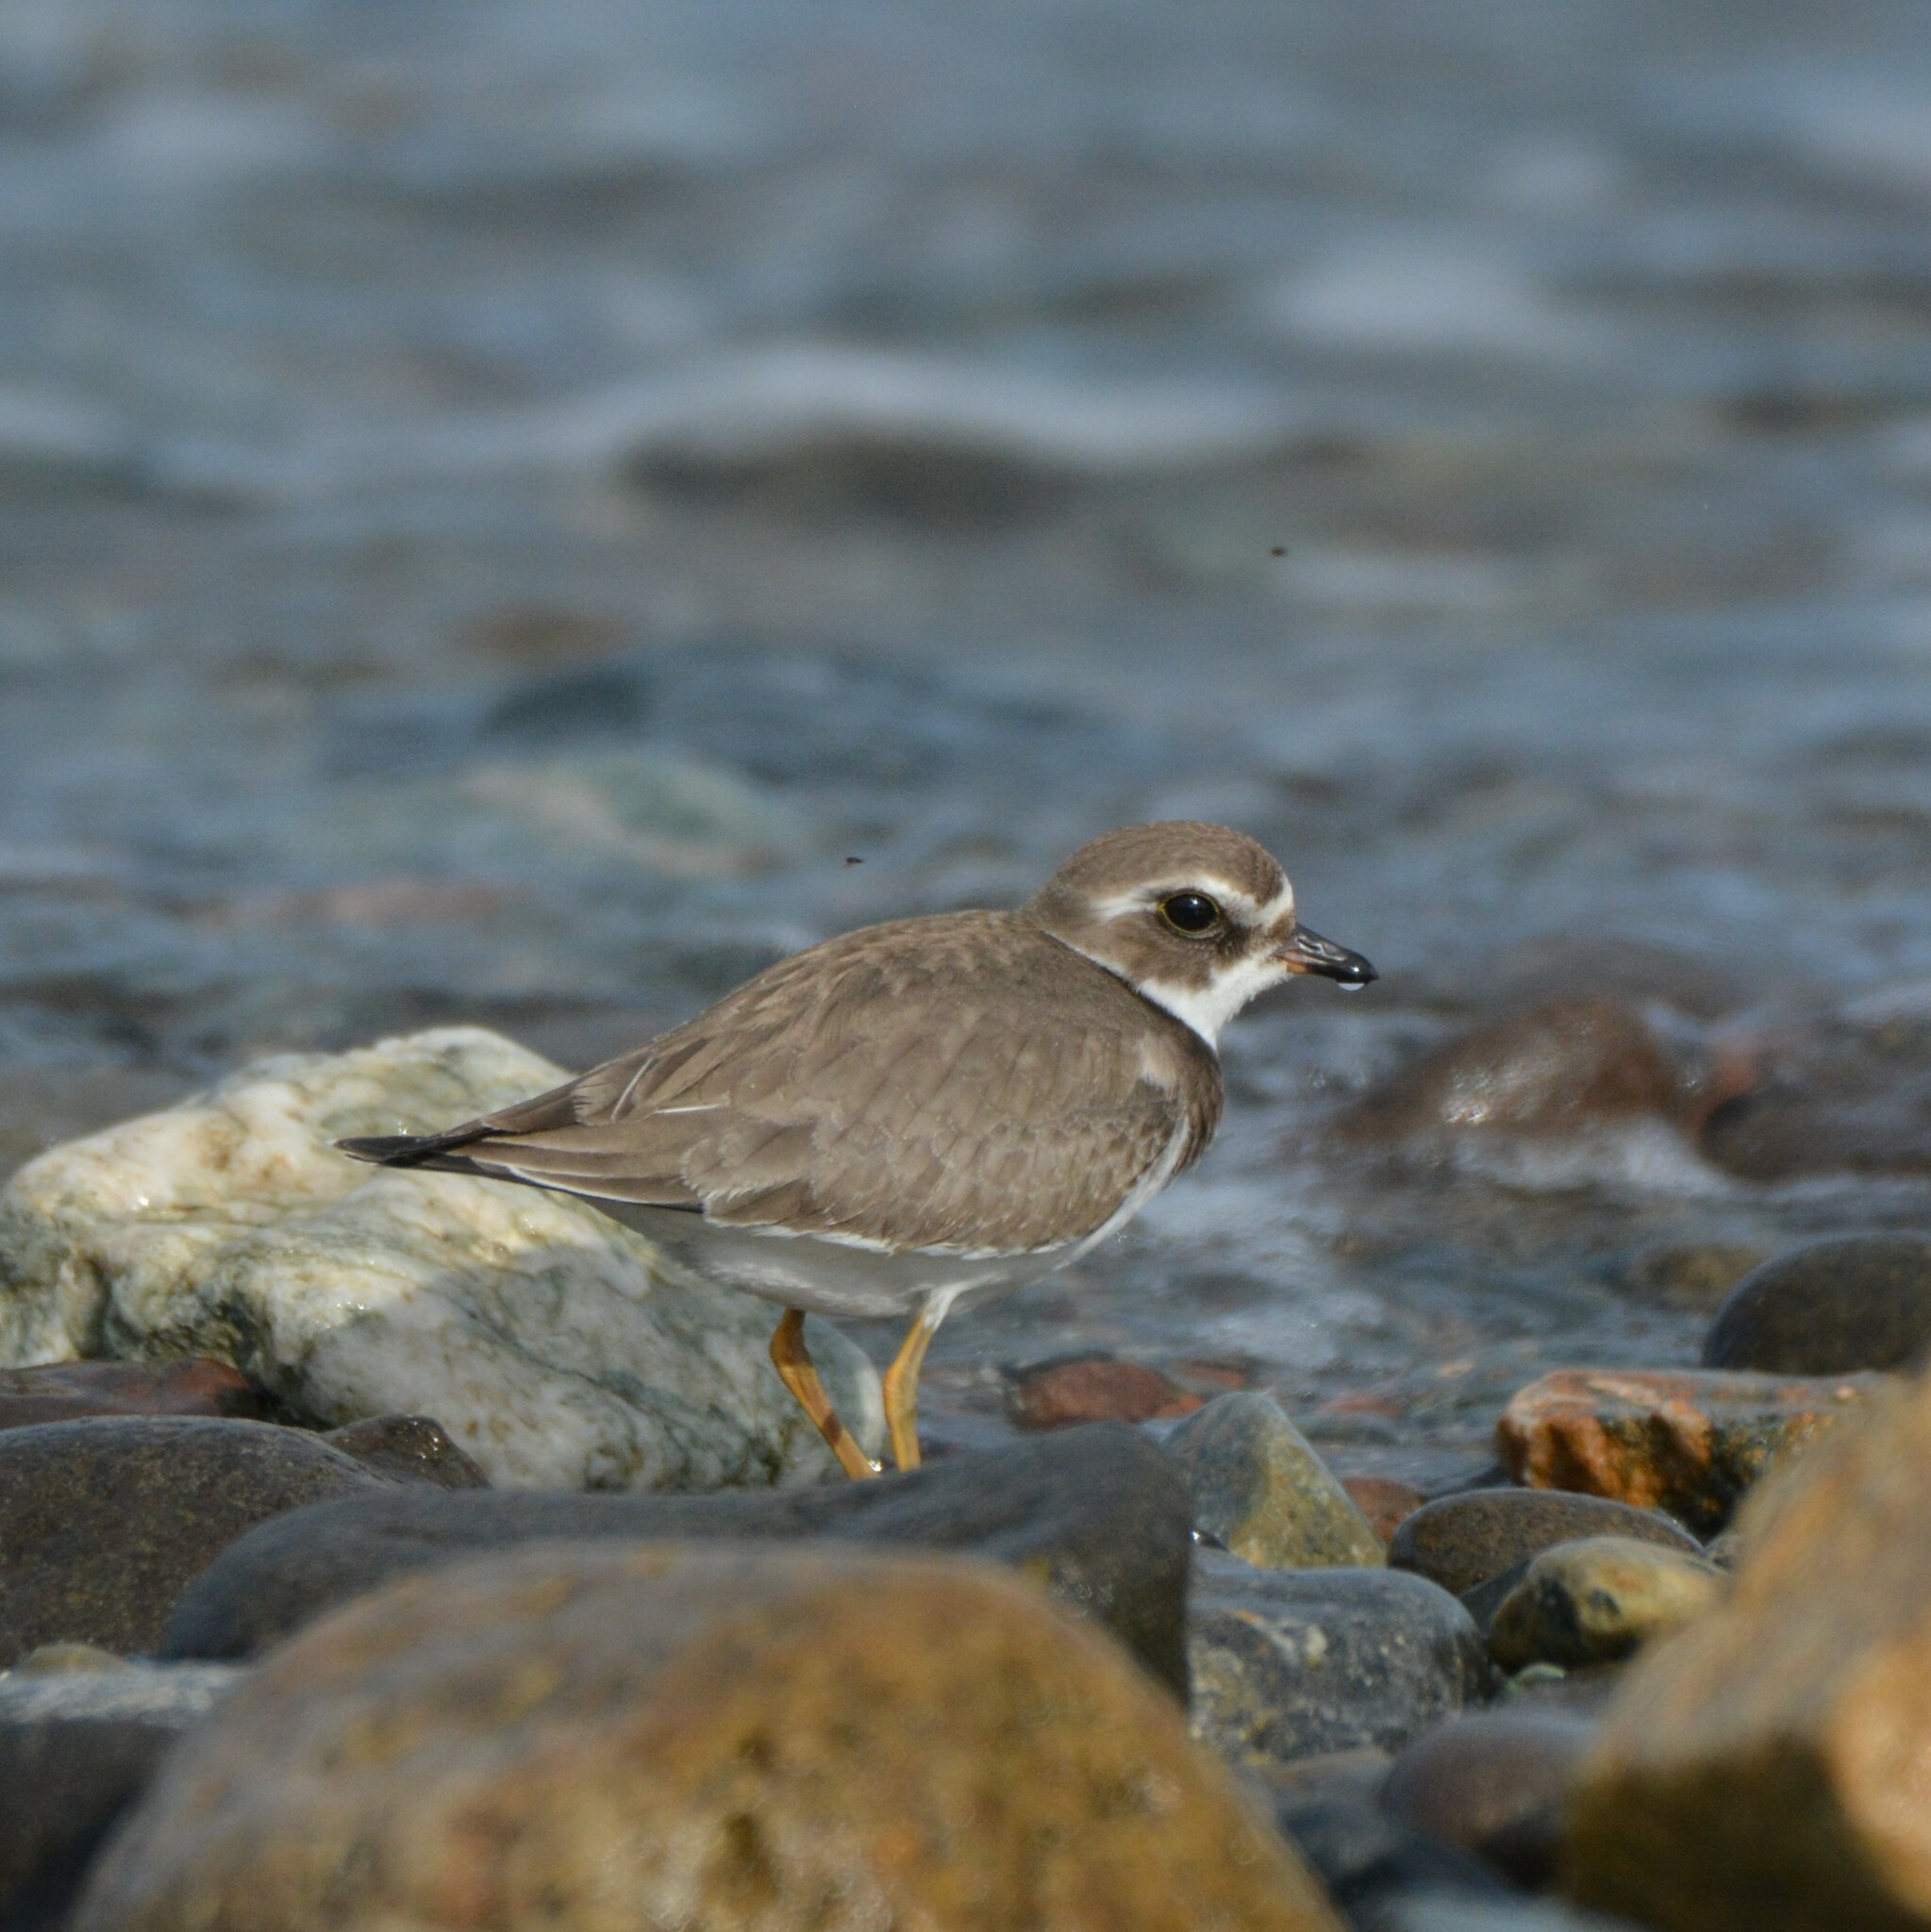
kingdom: Animalia
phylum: Chordata
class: Aves
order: Charadriiformes
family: Charadriidae
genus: Charadrius
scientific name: Charadrius semipalmatus
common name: Semipalmated plover
